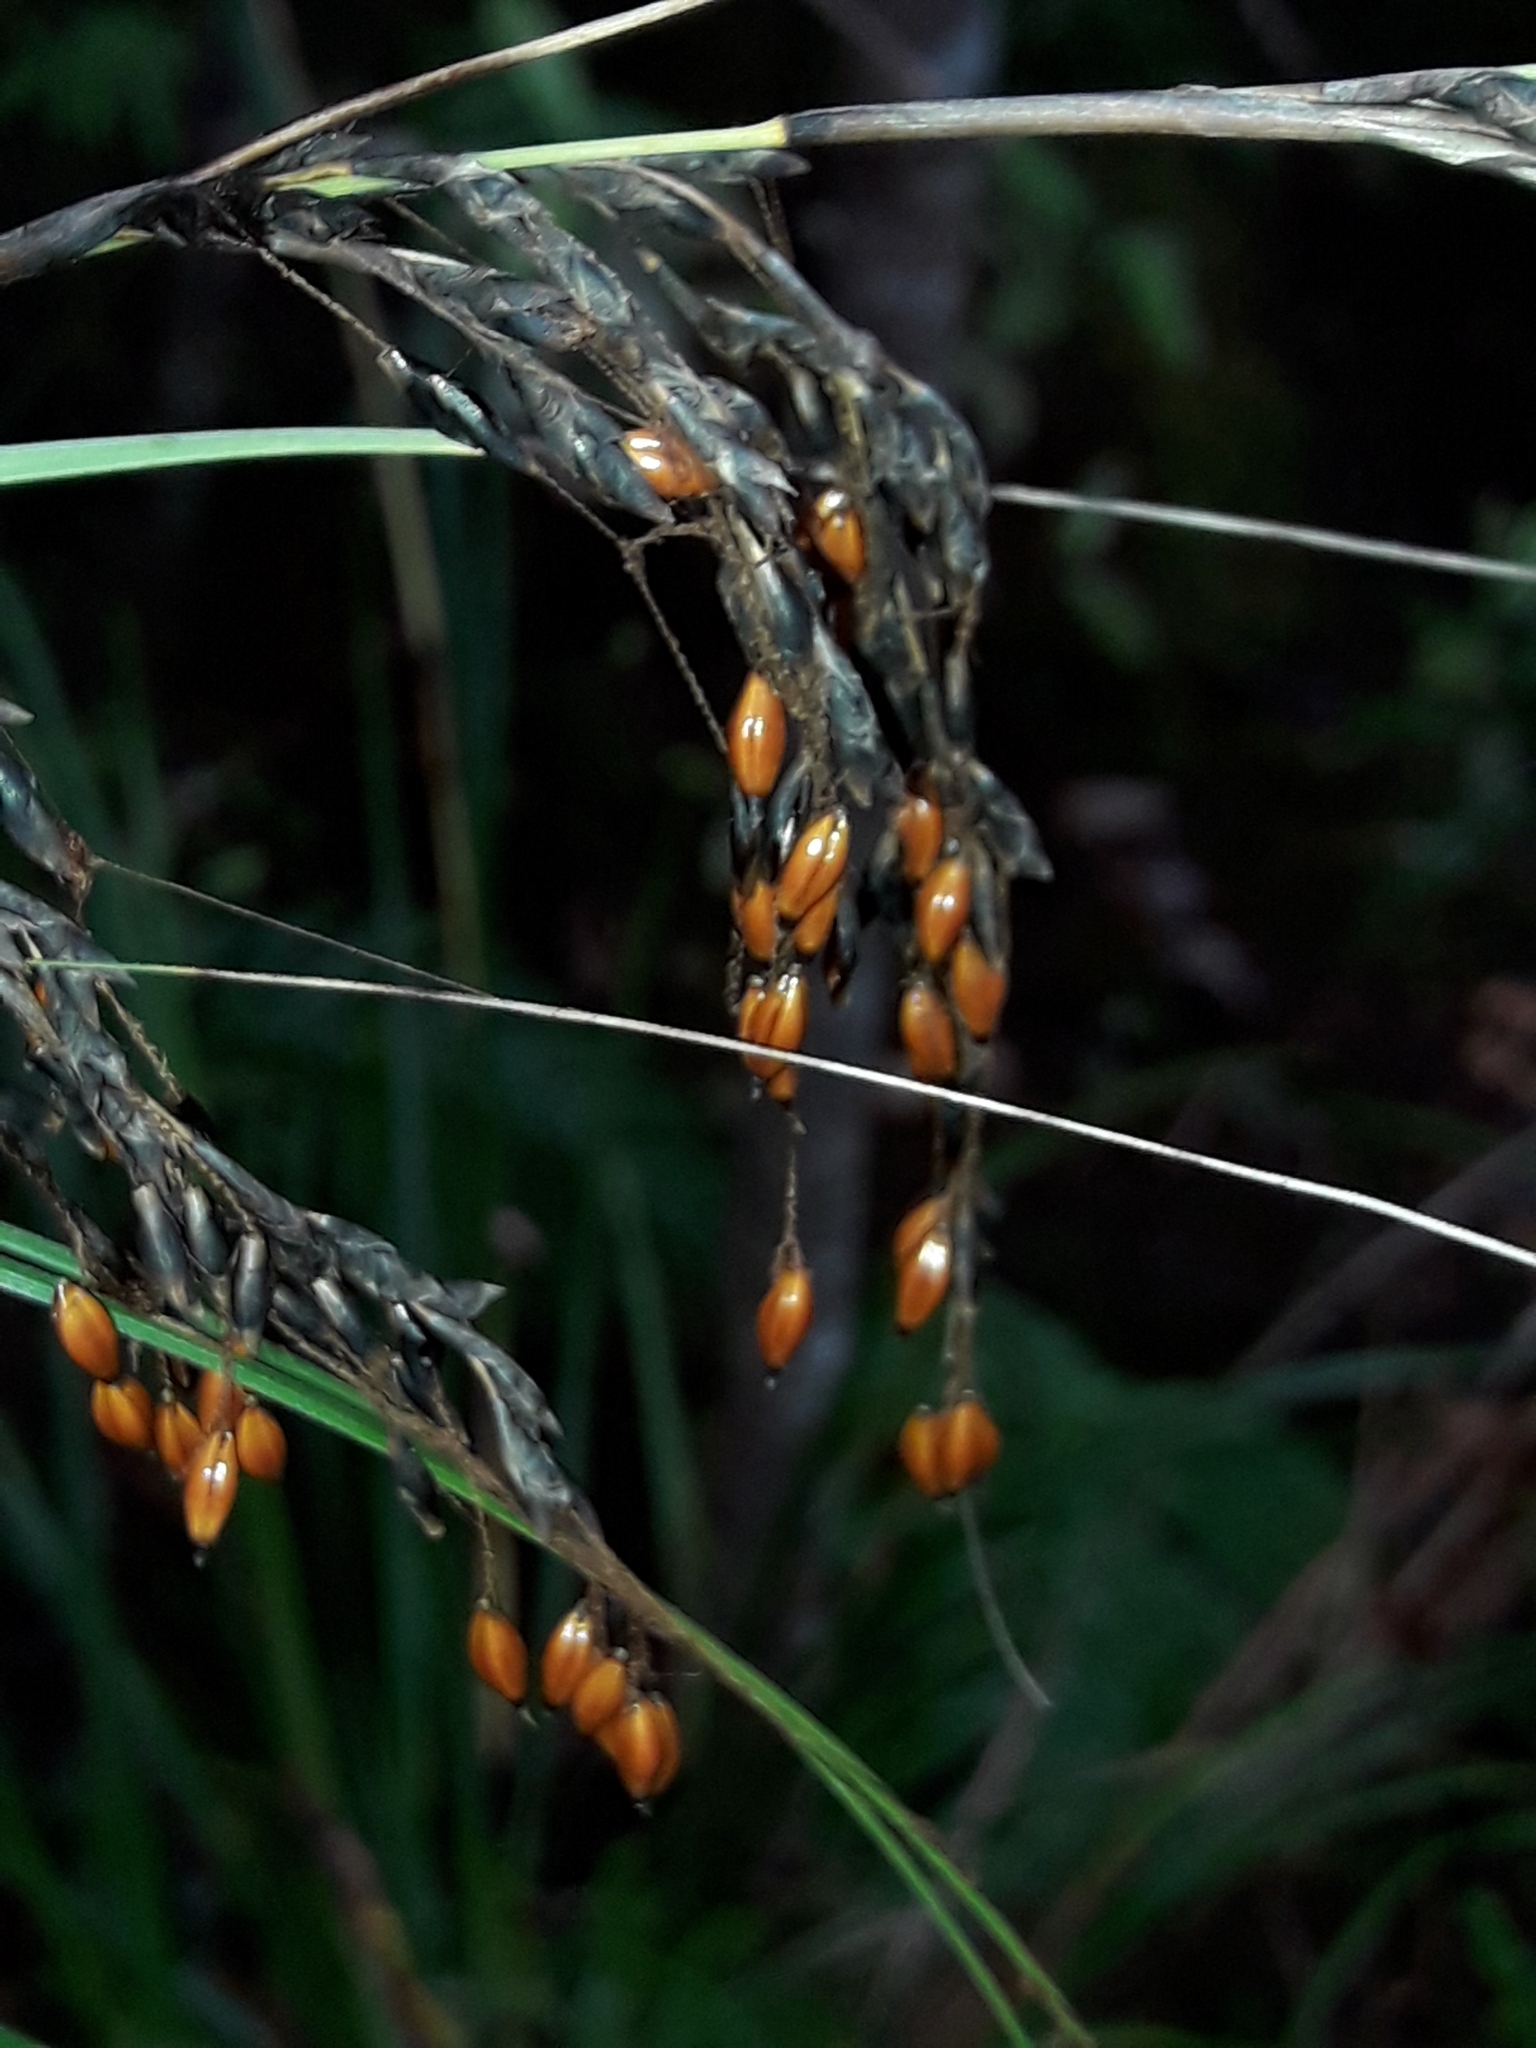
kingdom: Plantae
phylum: Tracheophyta
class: Liliopsida
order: Poales
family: Cyperaceae
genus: Gahnia
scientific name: Gahnia pauciflora
